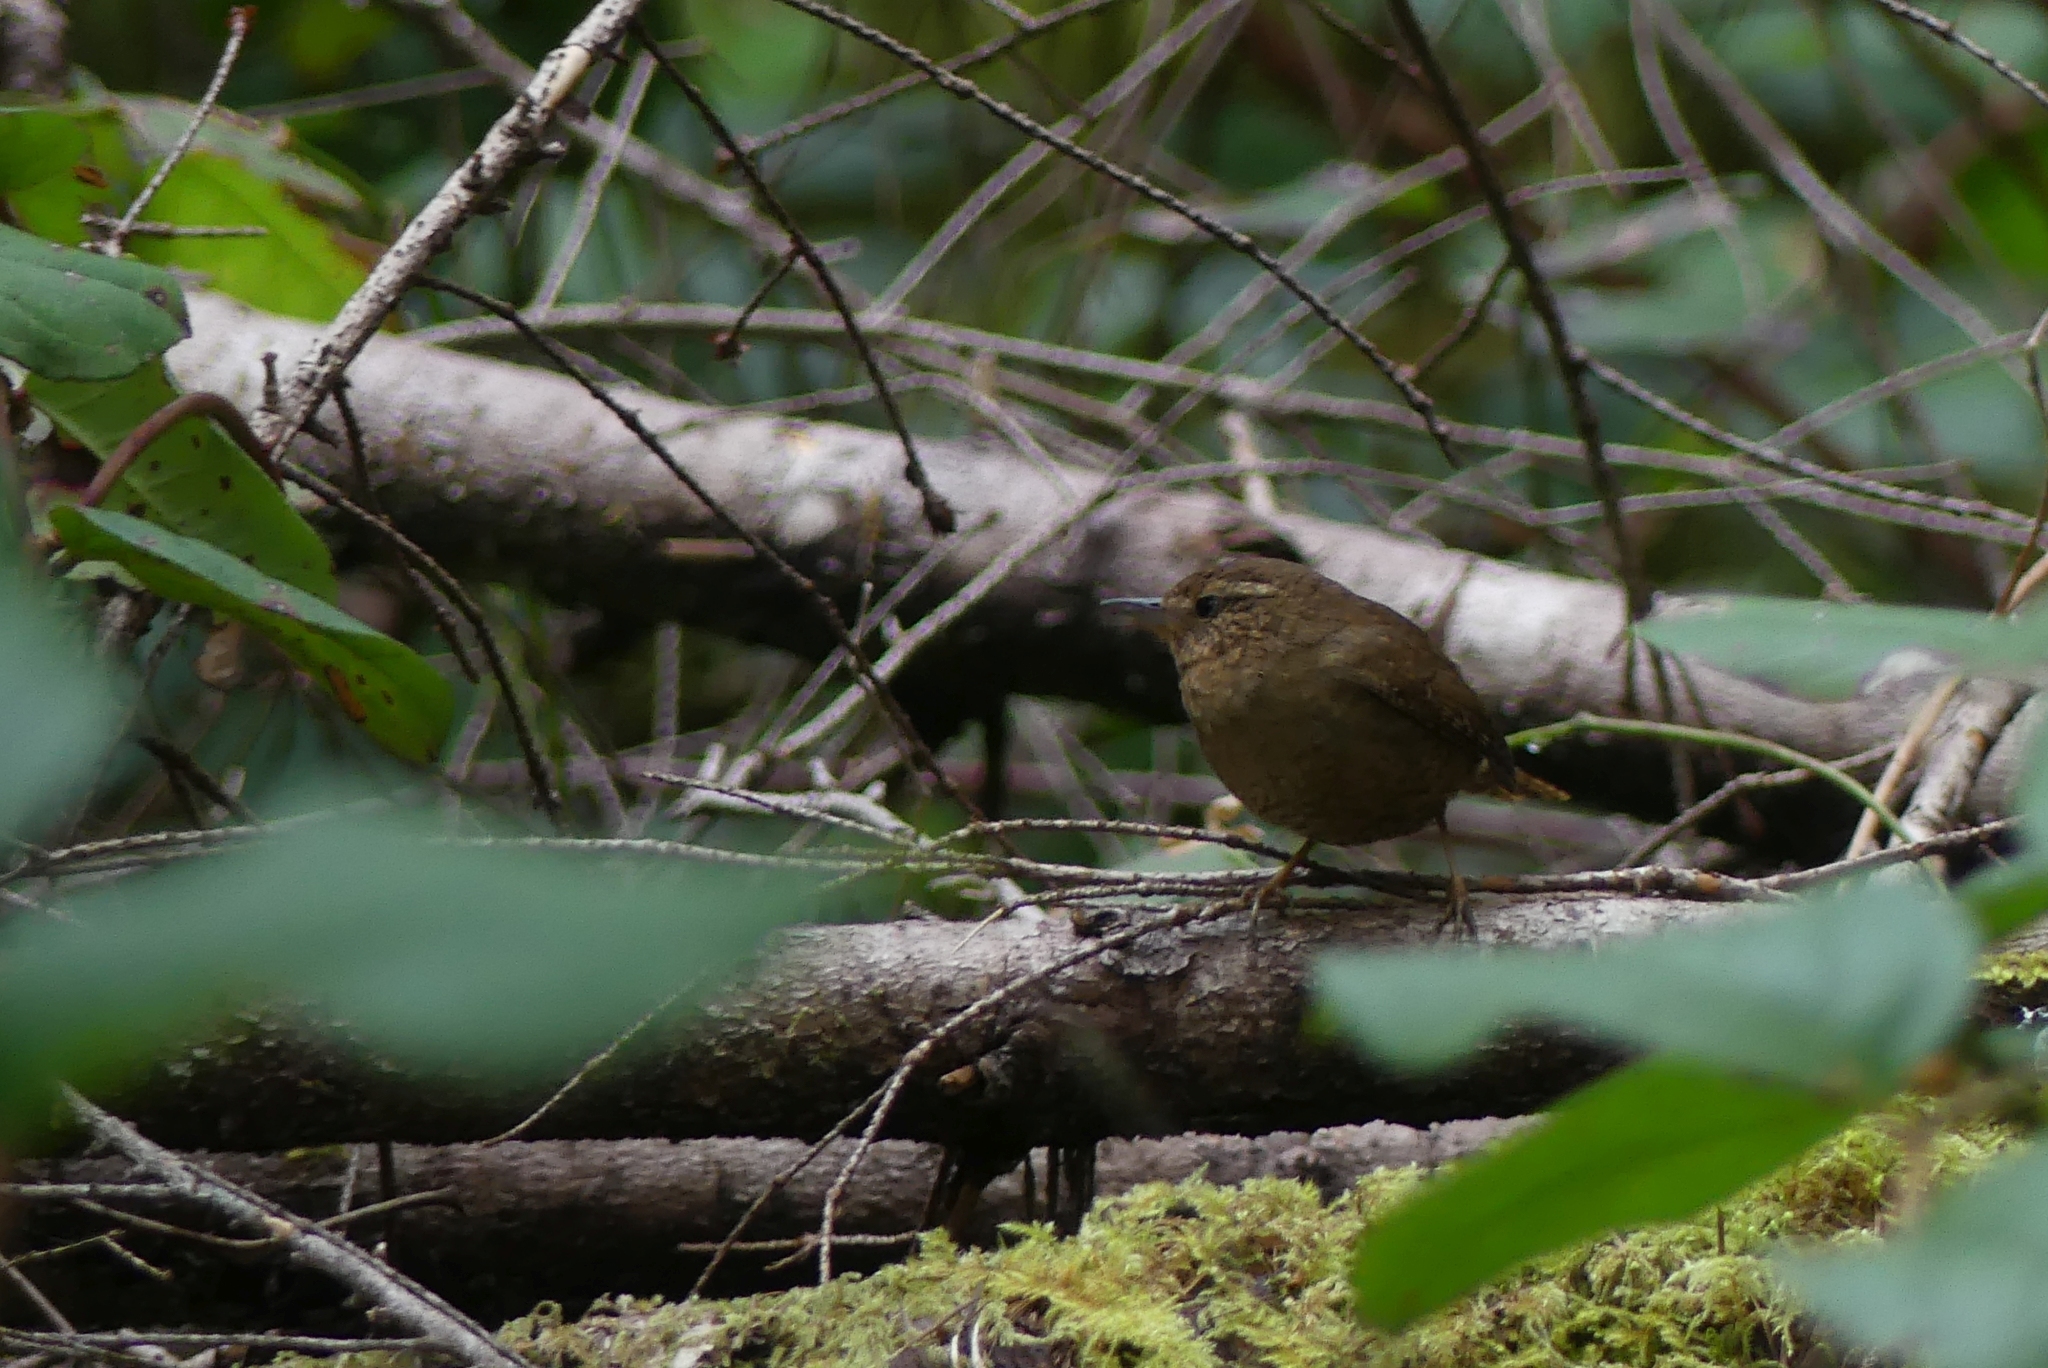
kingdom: Animalia
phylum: Chordata
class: Aves
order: Passeriformes
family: Troglodytidae
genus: Troglodytes
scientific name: Troglodytes pacificus
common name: Pacific wren
